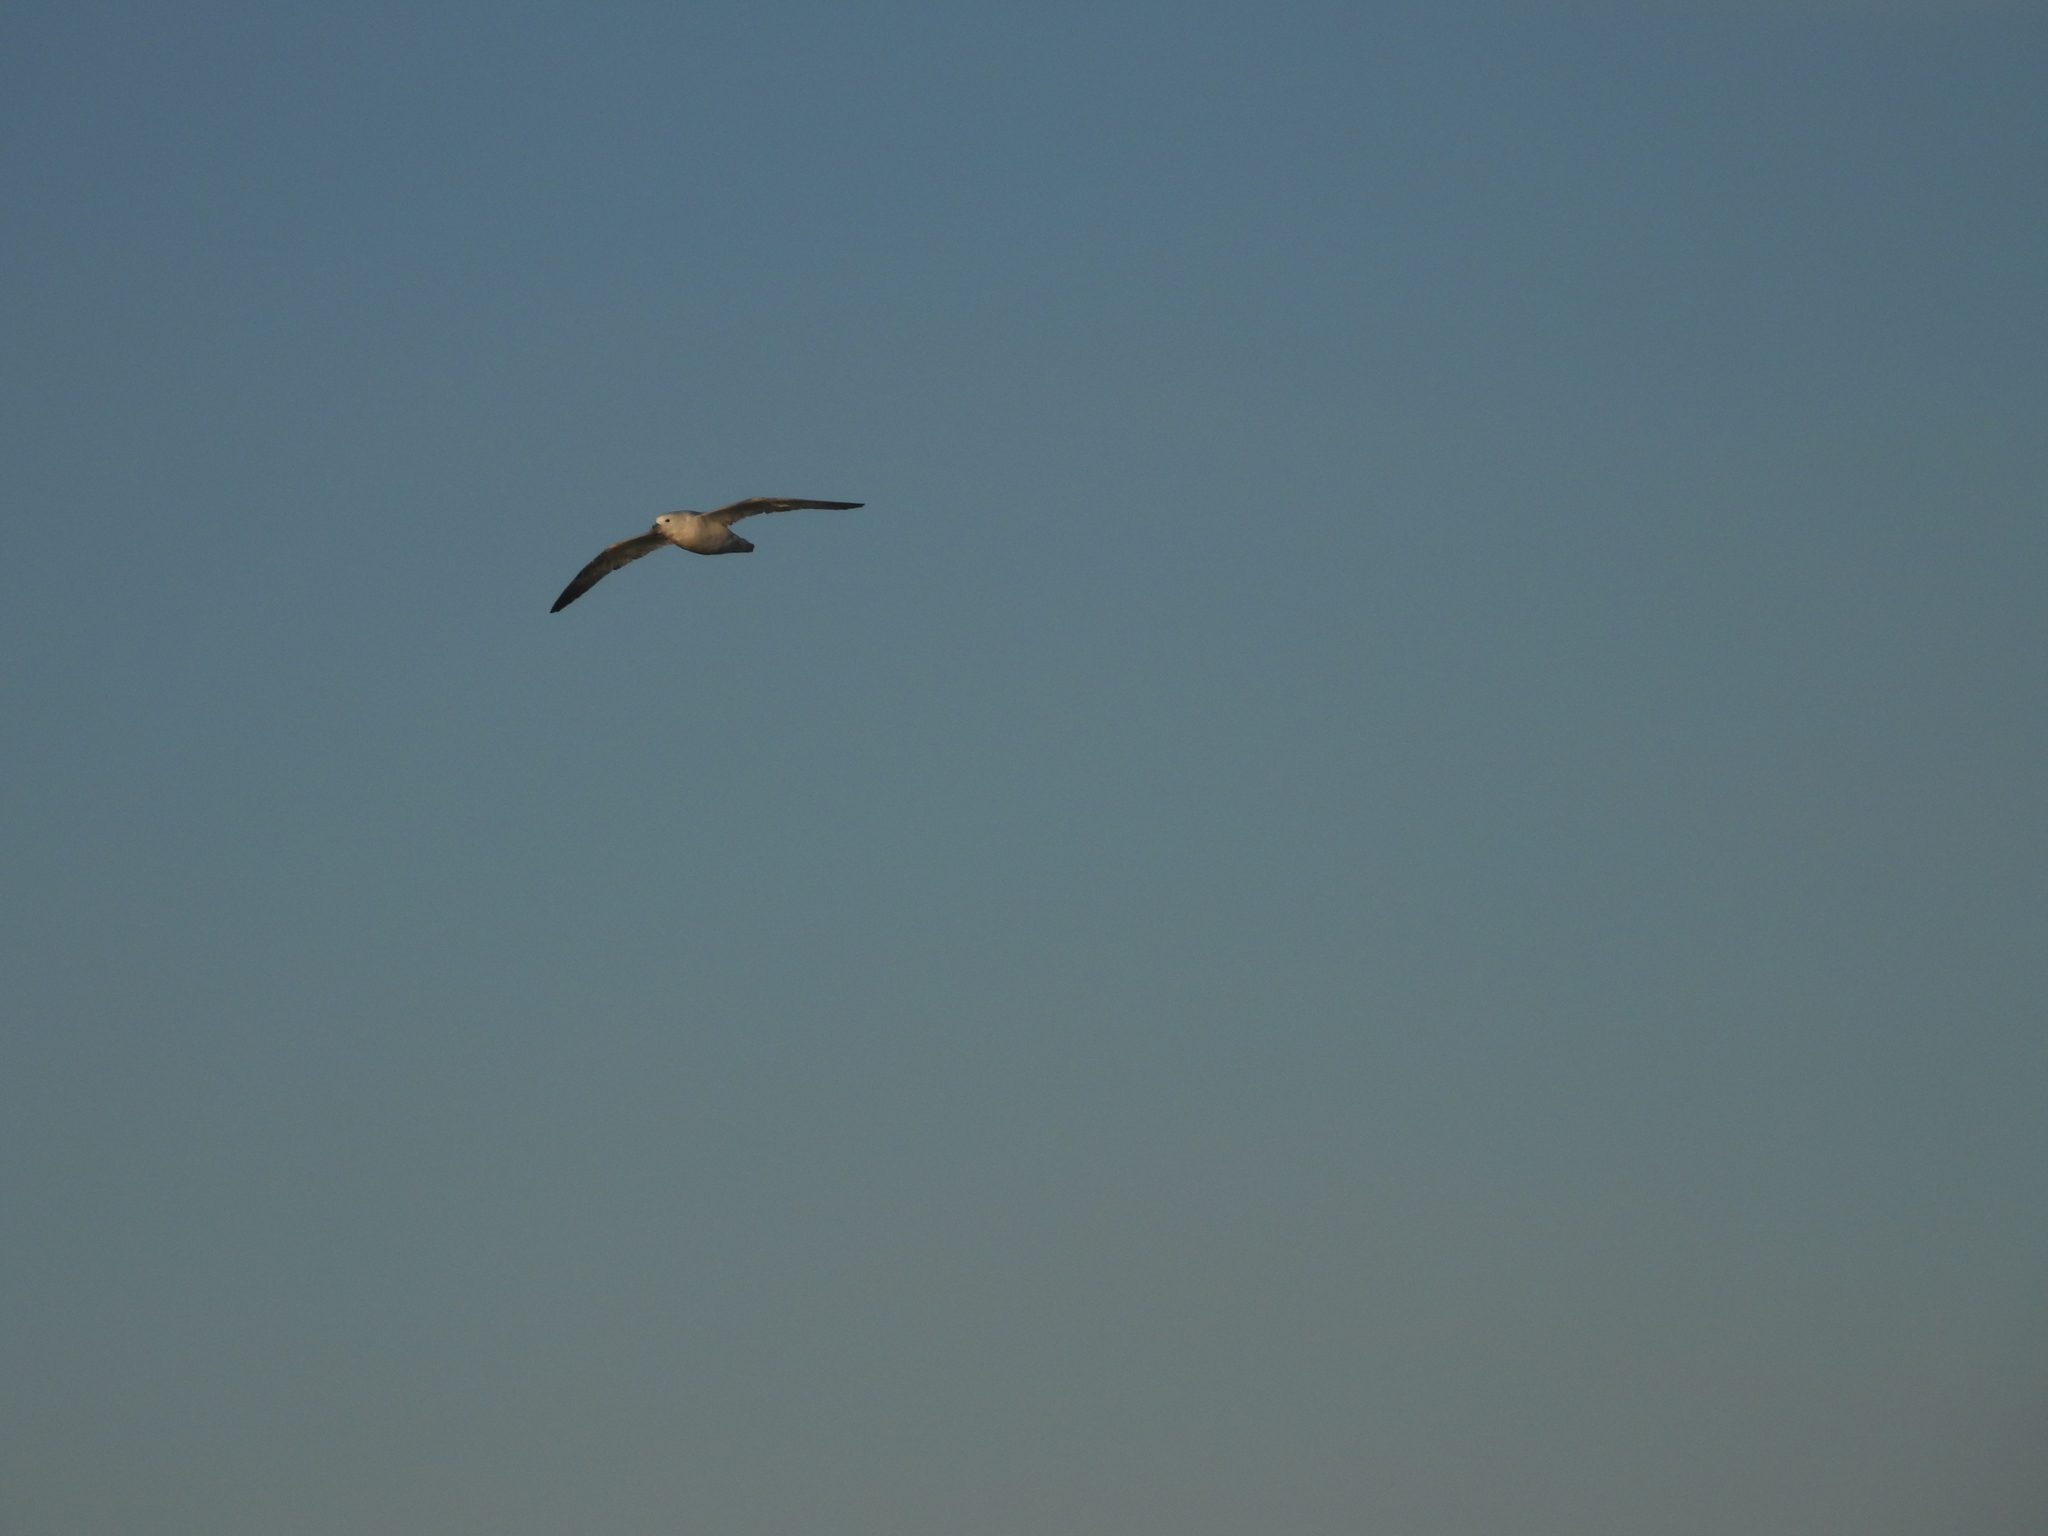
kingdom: Animalia
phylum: Chordata
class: Aves
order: Procellariiformes
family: Procellariidae
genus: Fulmarus
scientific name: Fulmarus glacialis
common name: Northern fulmar
